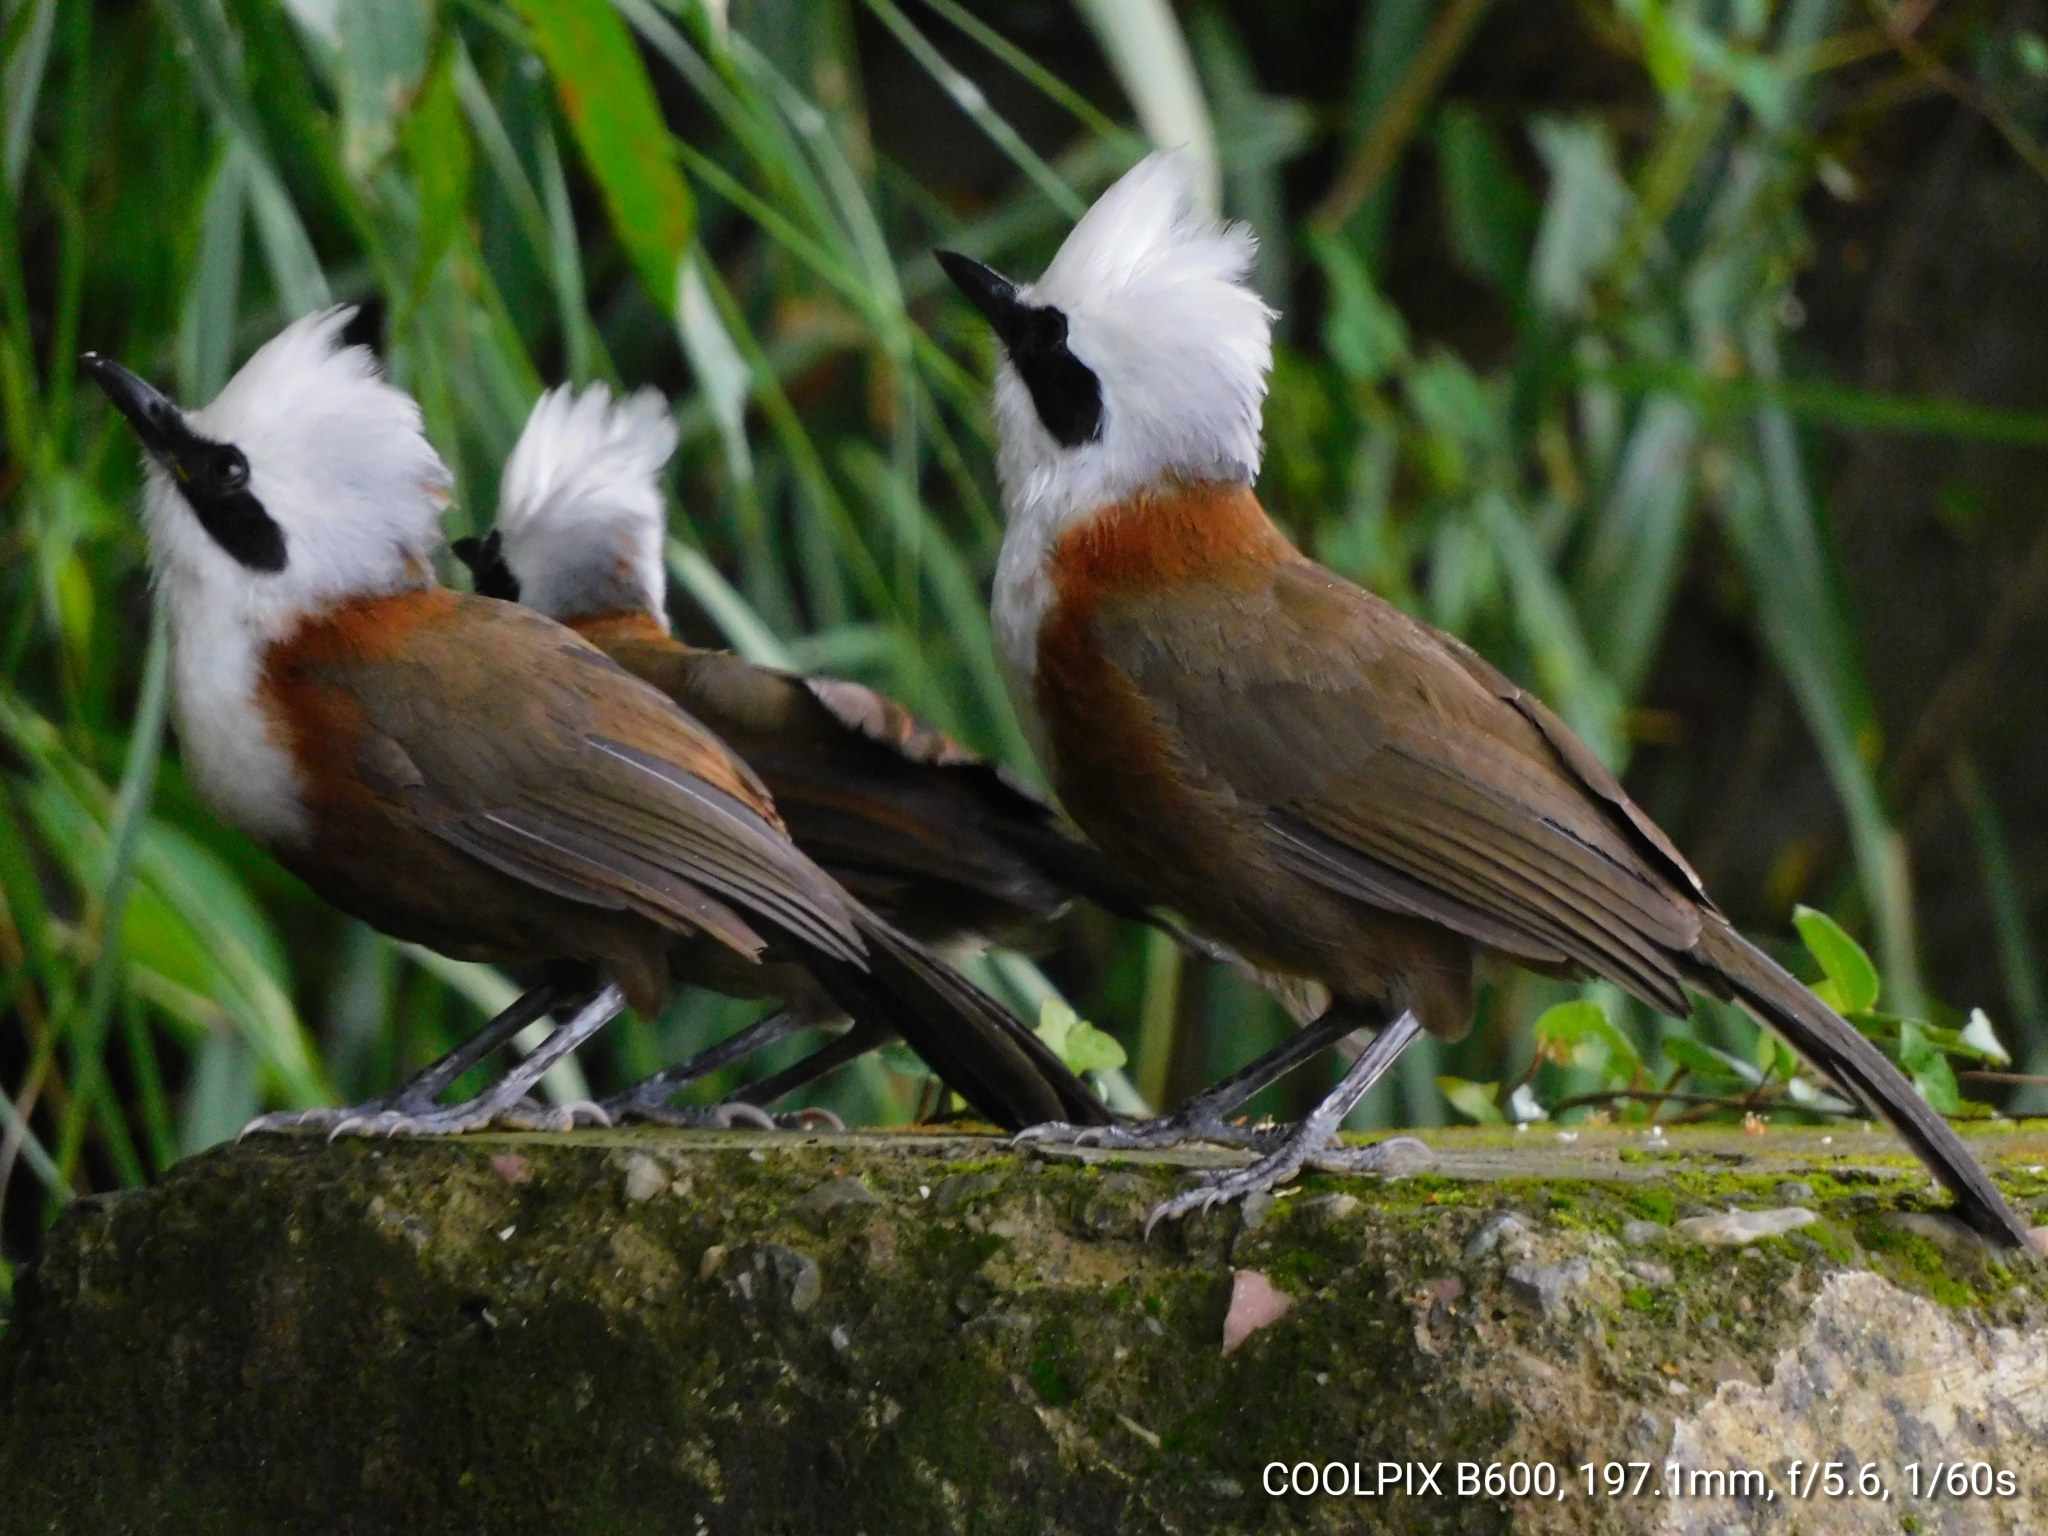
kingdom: Animalia
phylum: Chordata
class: Aves
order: Passeriformes
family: Leiothrichidae
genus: Garrulax
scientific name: Garrulax leucolophus
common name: White-crested laughingthrush
